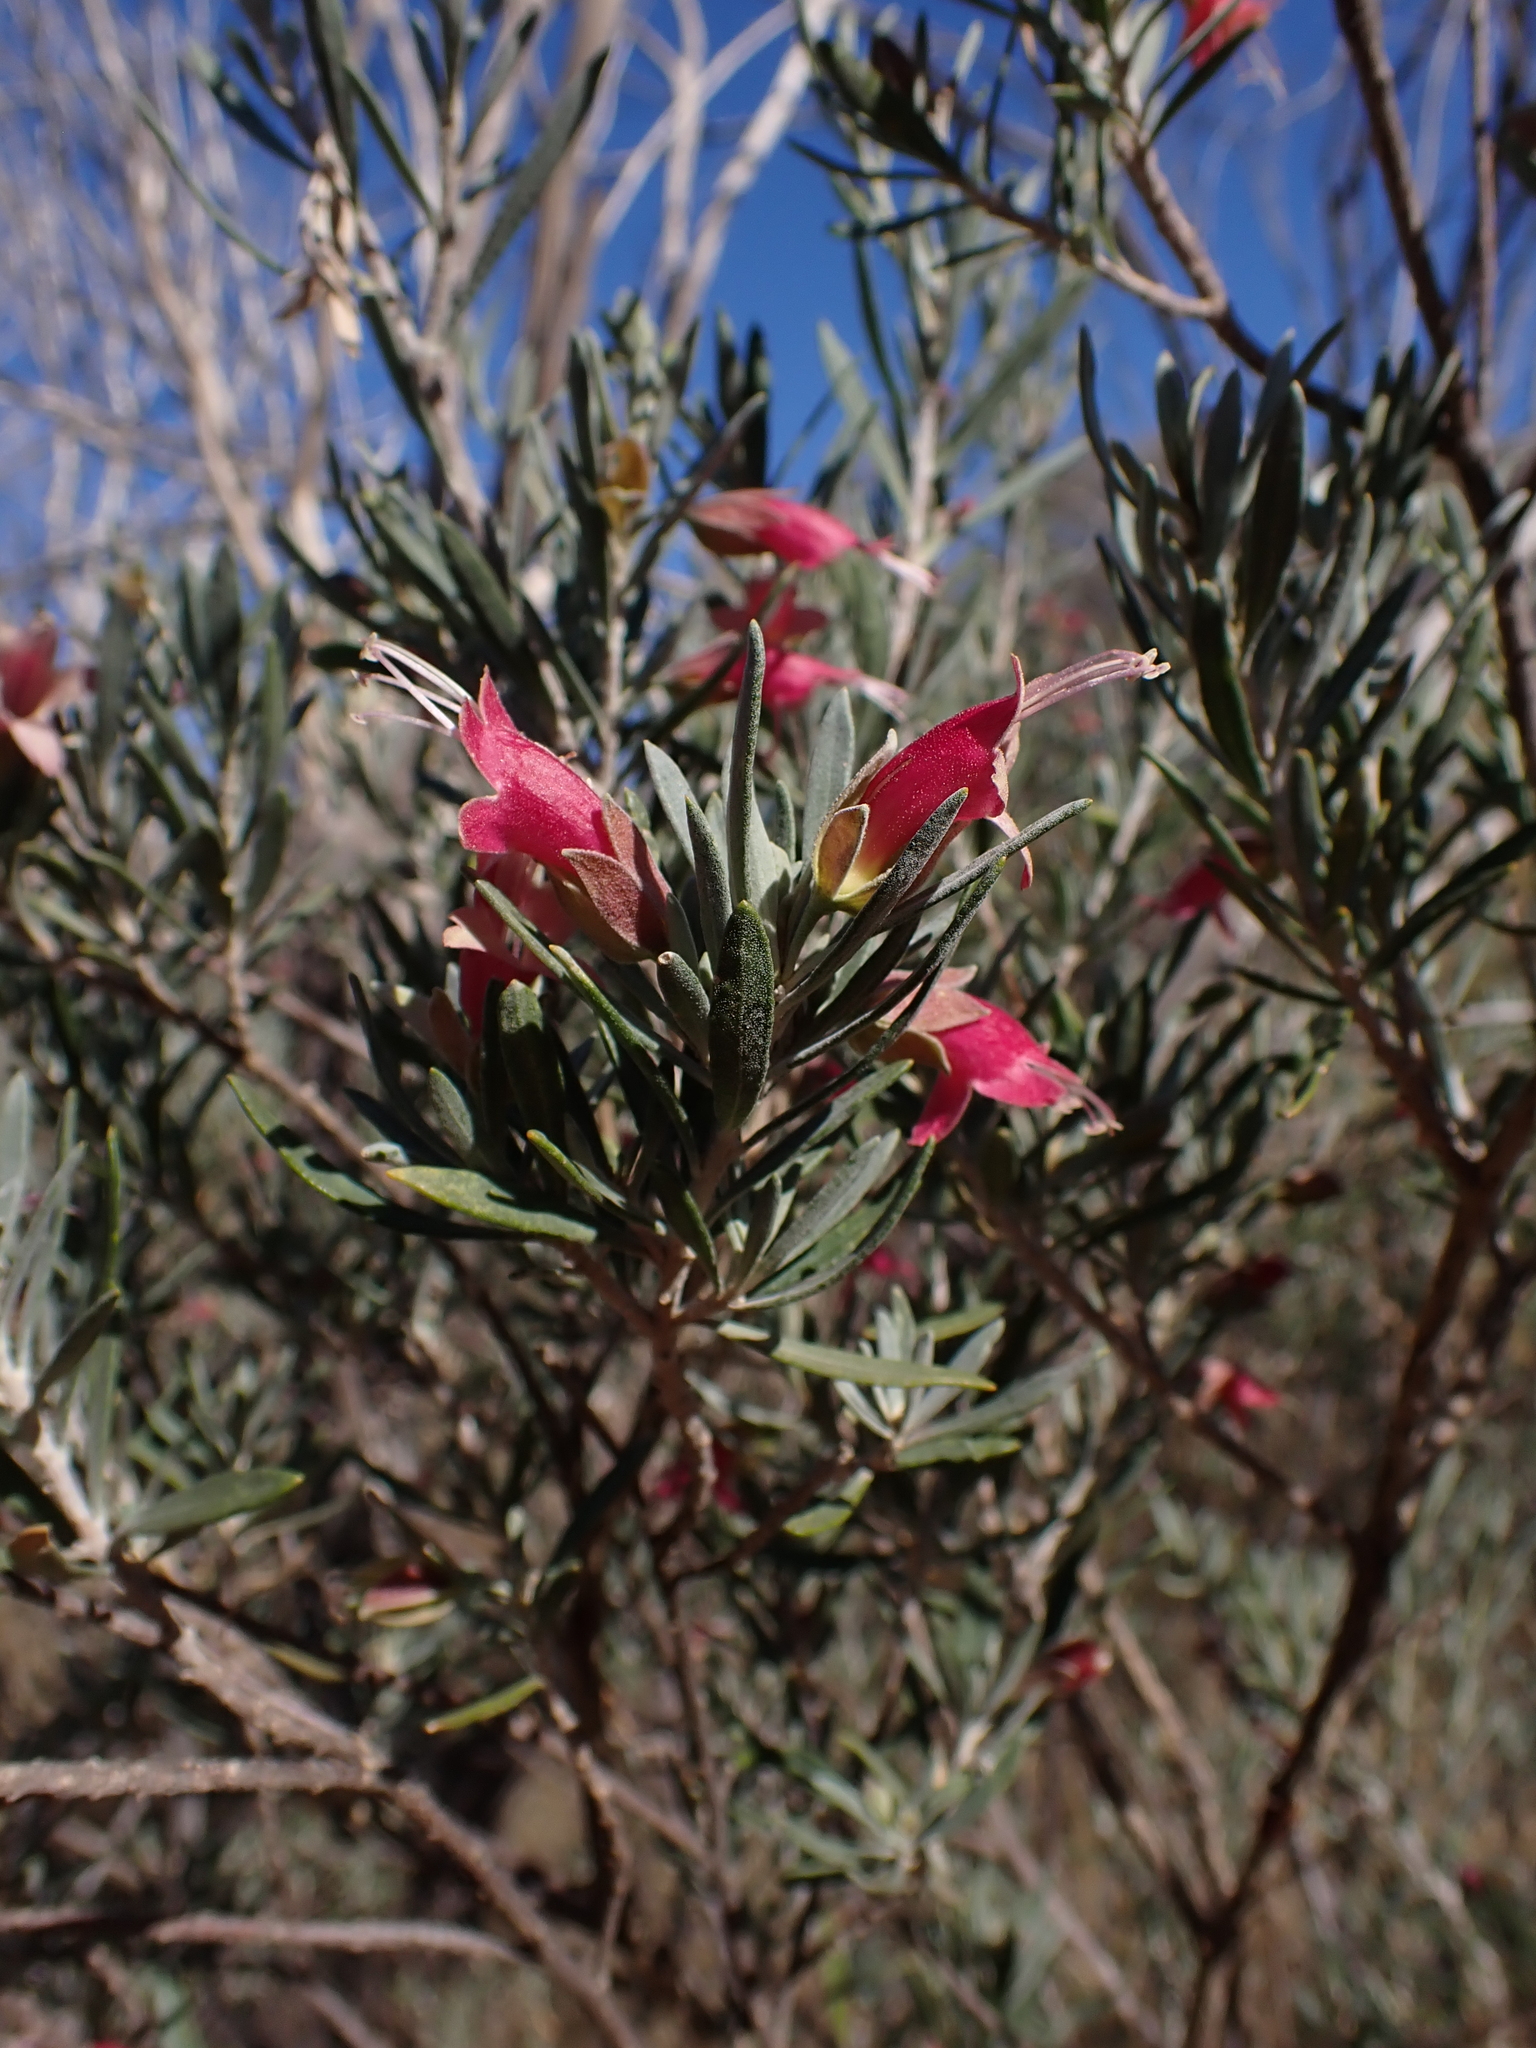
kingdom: Plantae
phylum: Tracheophyta
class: Magnoliopsida
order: Lamiales
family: Scrophulariaceae
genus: Eremophila
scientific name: Eremophila latrobei
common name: Crimson turkeybush
